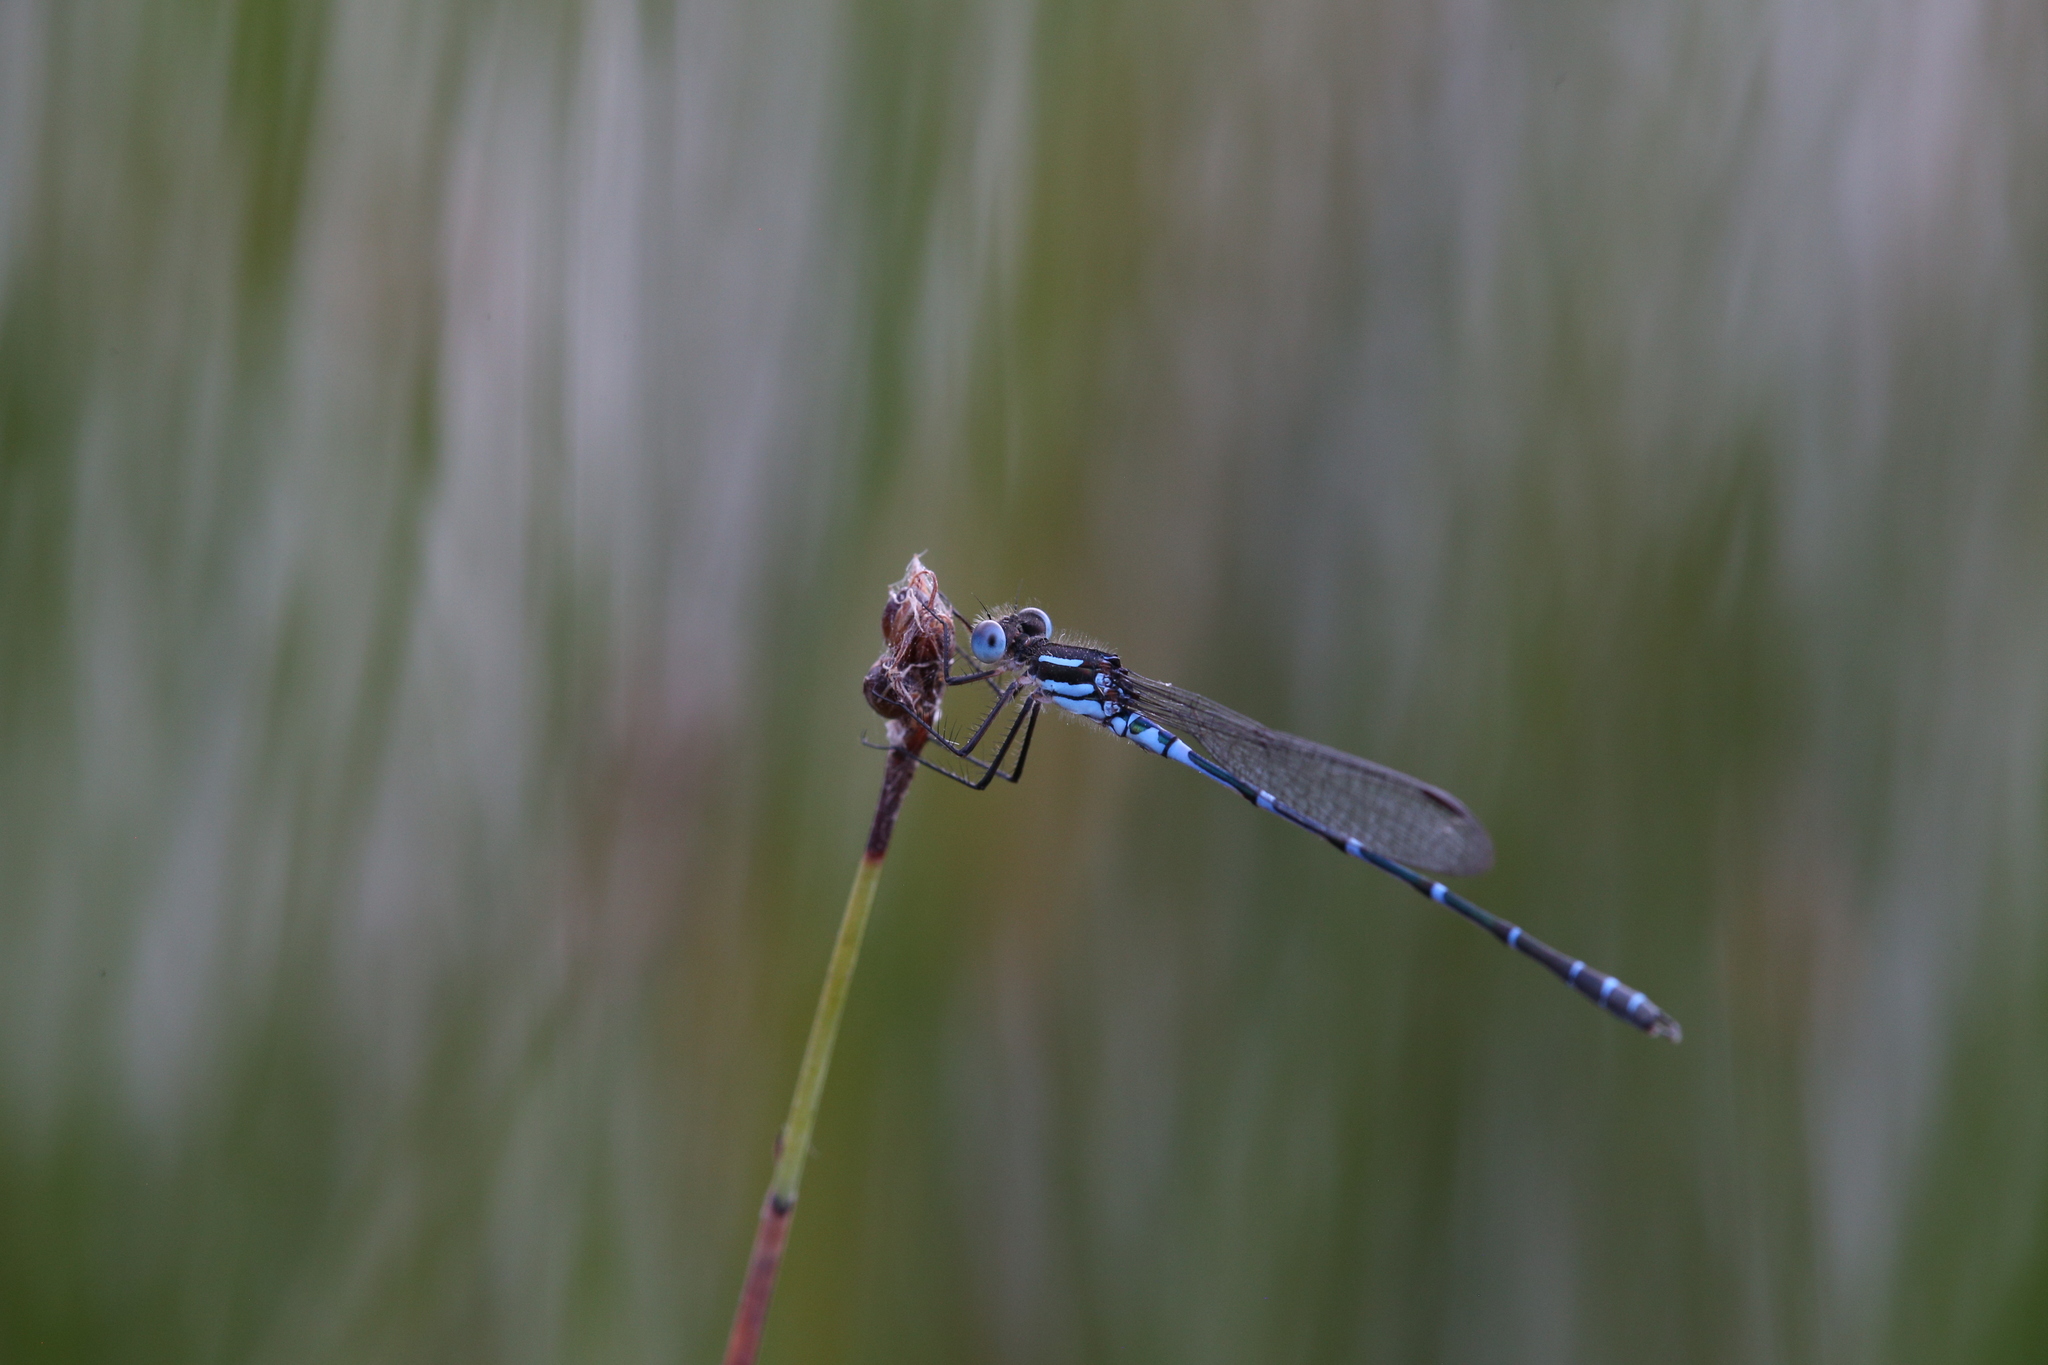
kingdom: Animalia
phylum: Arthropoda
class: Insecta
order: Odonata
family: Lestidae
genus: Austrolestes
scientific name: Austrolestes aleison
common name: Western ringtail
